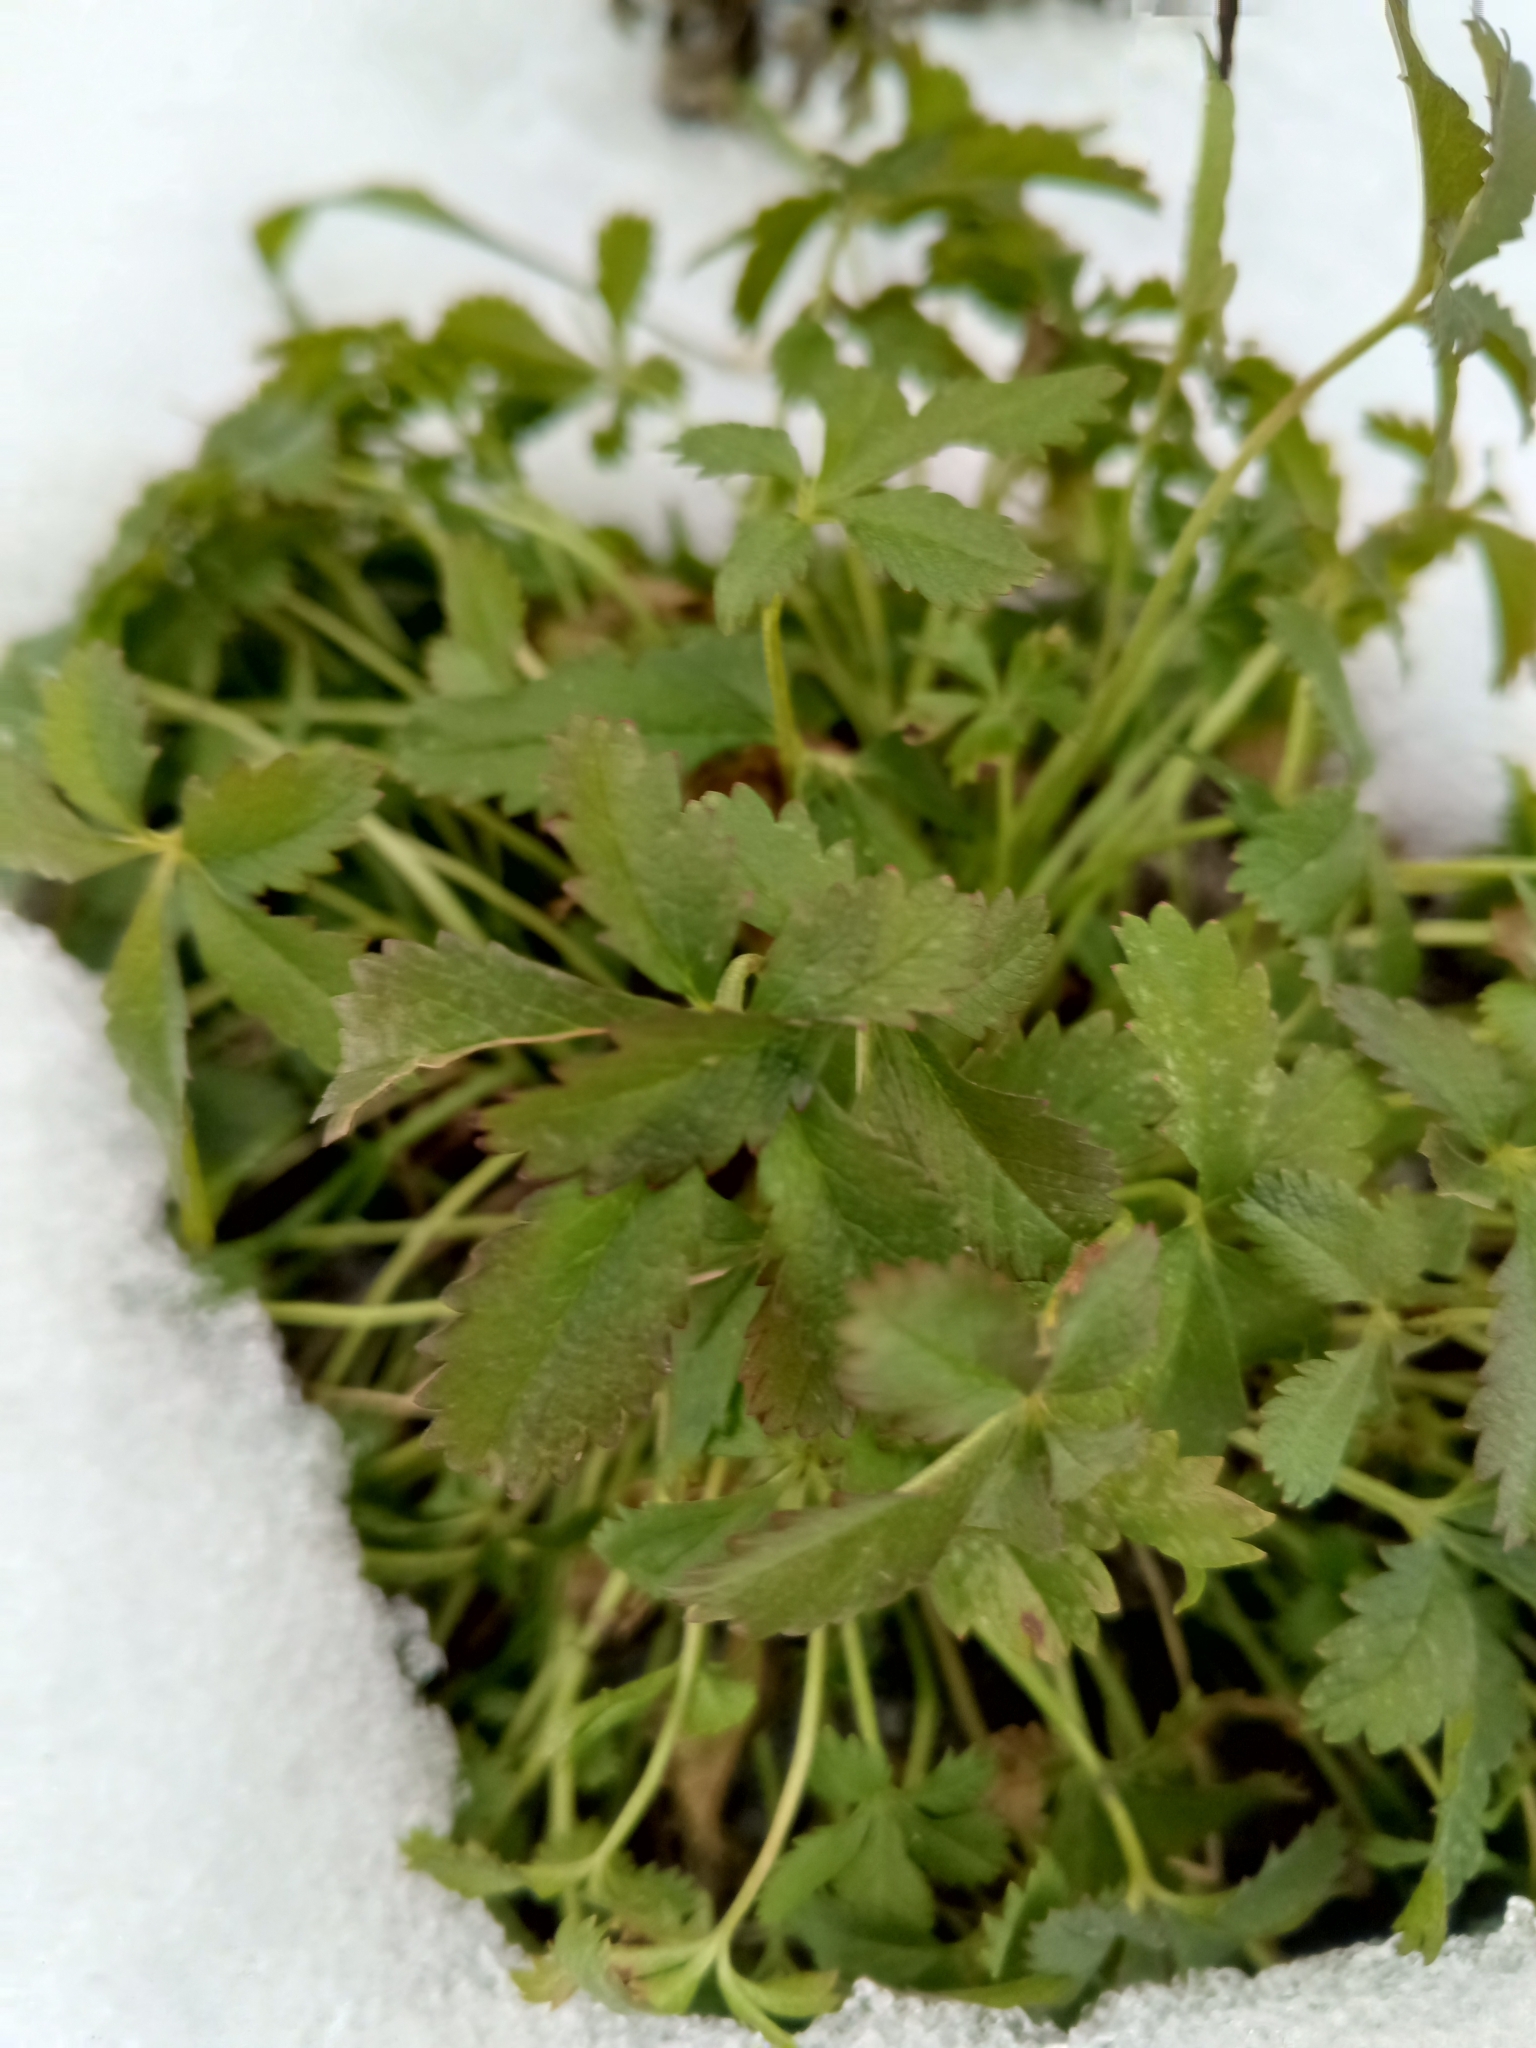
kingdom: Plantae
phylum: Tracheophyta
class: Magnoliopsida
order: Rosales
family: Rosaceae
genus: Potentilla
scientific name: Potentilla reptans
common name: Creeping cinquefoil
